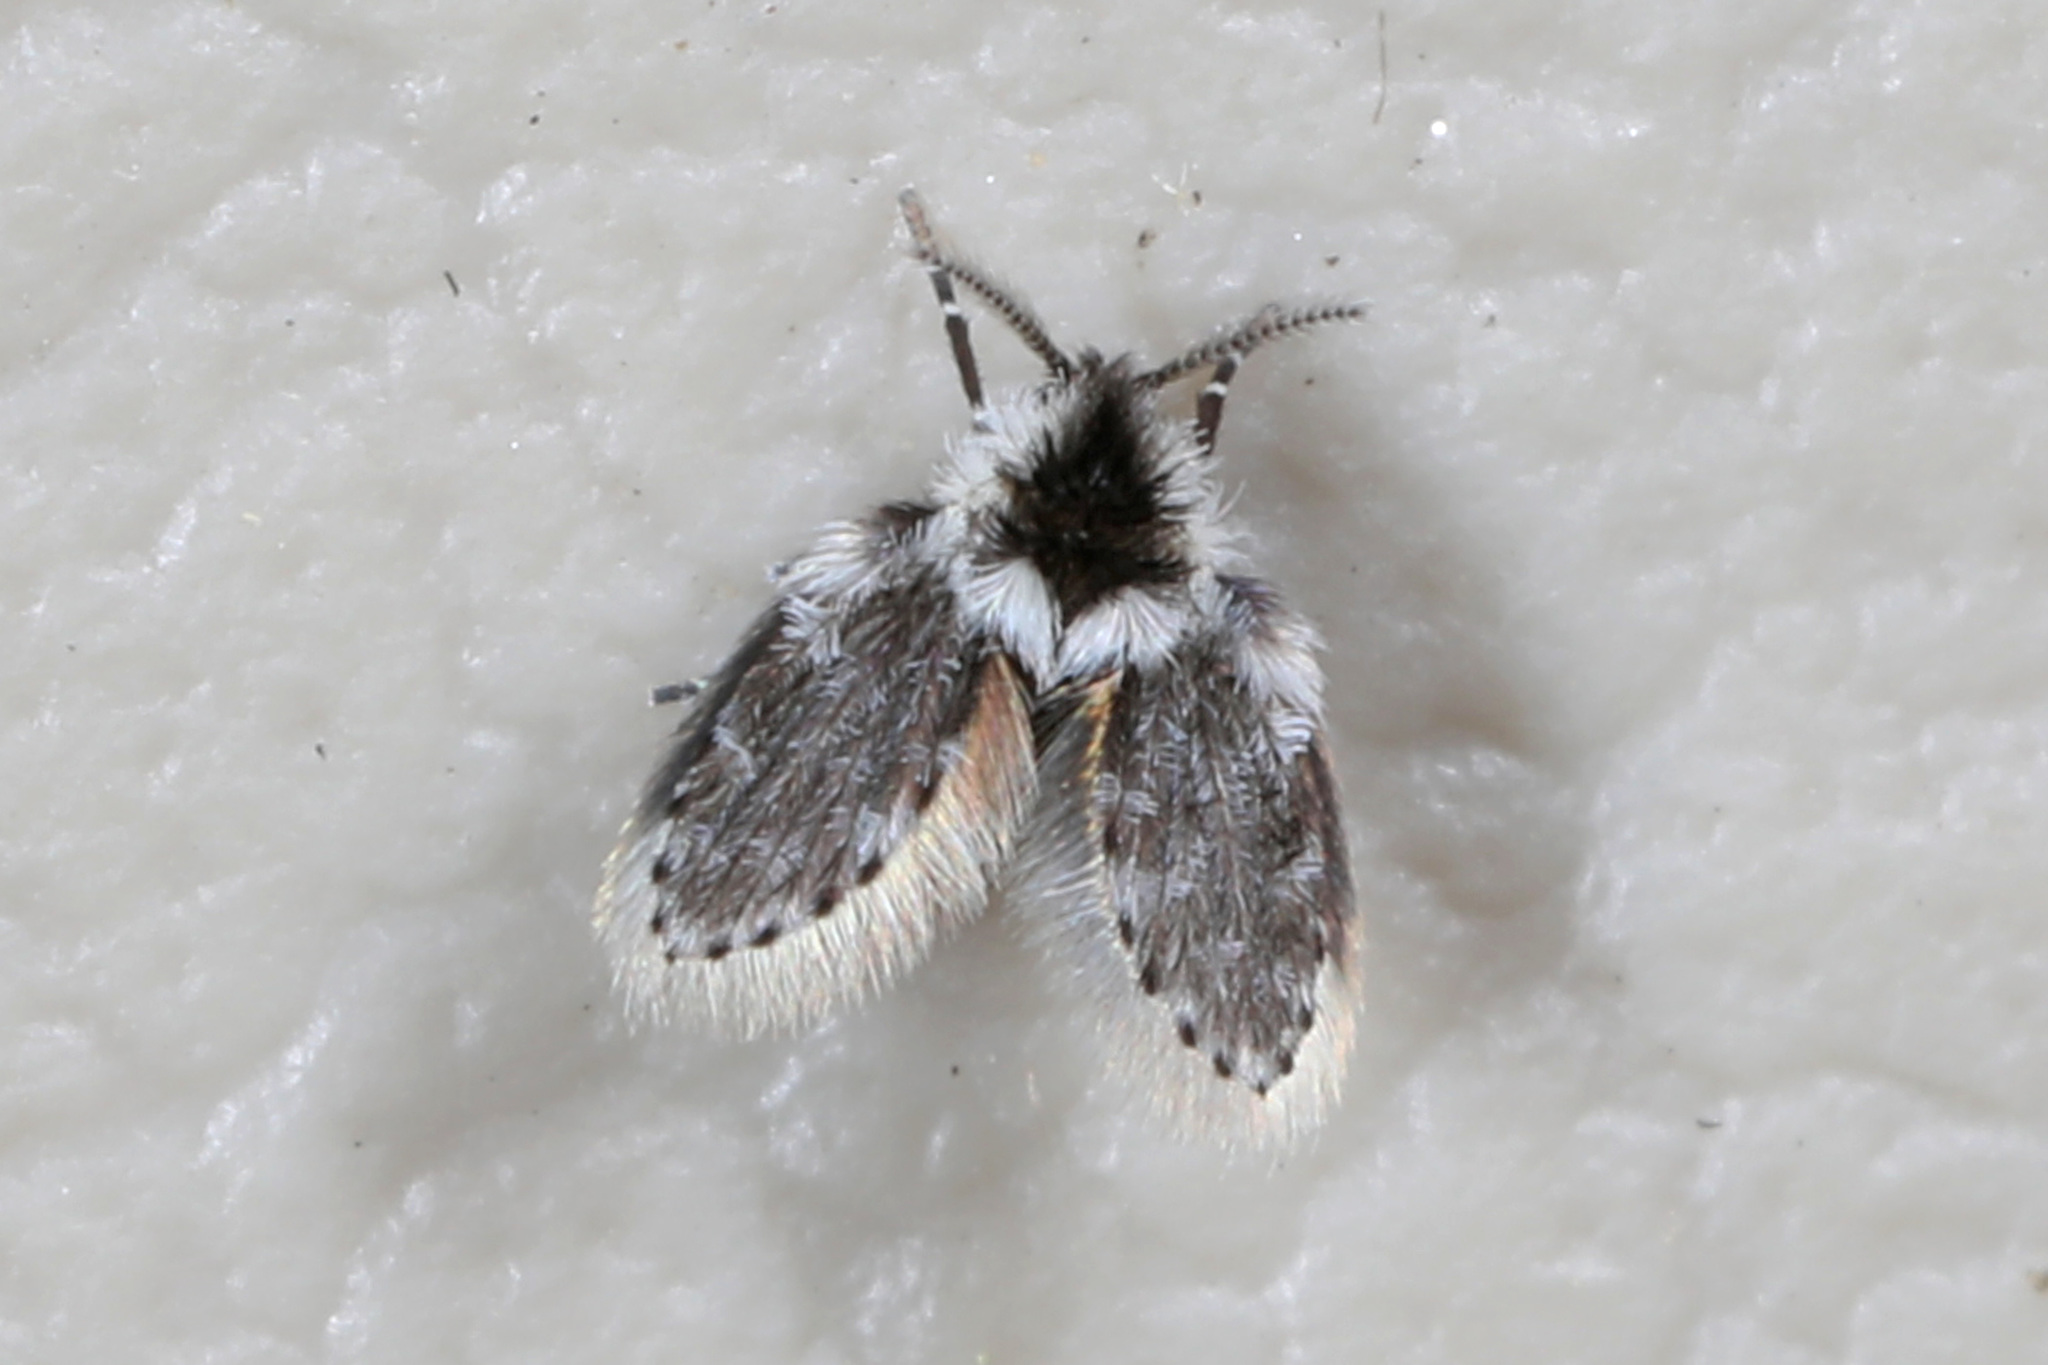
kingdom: Animalia
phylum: Arthropoda
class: Insecta
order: Diptera
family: Psychodidae
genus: Lepiseodina
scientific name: Lepiseodina
